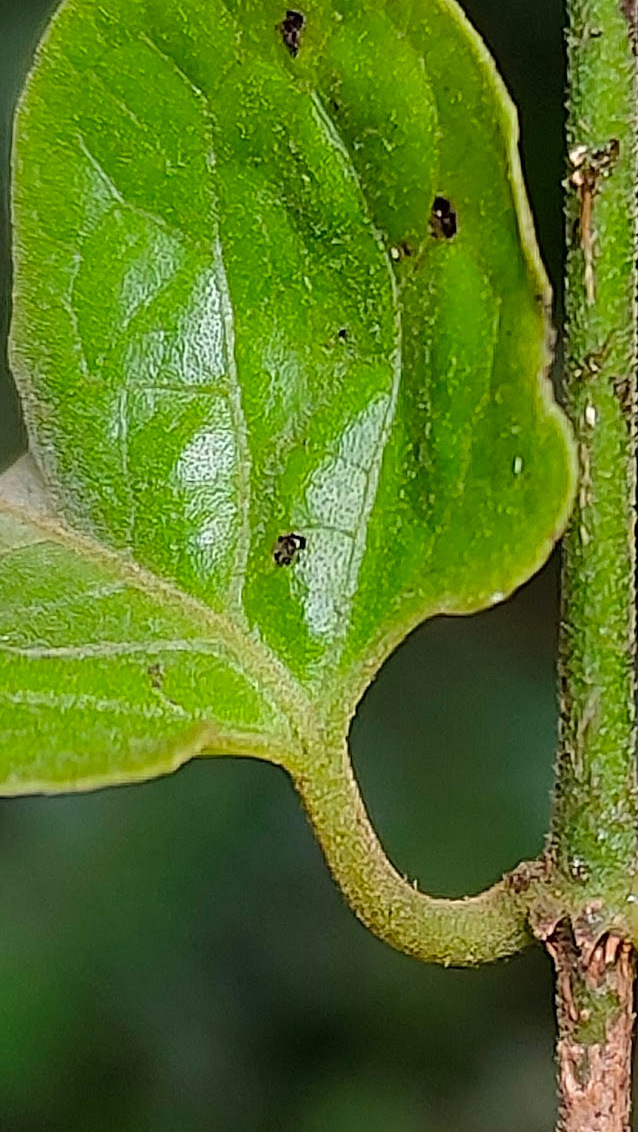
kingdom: Plantae
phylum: Tracheophyta
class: Magnoliopsida
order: Gentianales
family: Apocynaceae
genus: Parsonsia
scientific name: Parsonsia velutina
